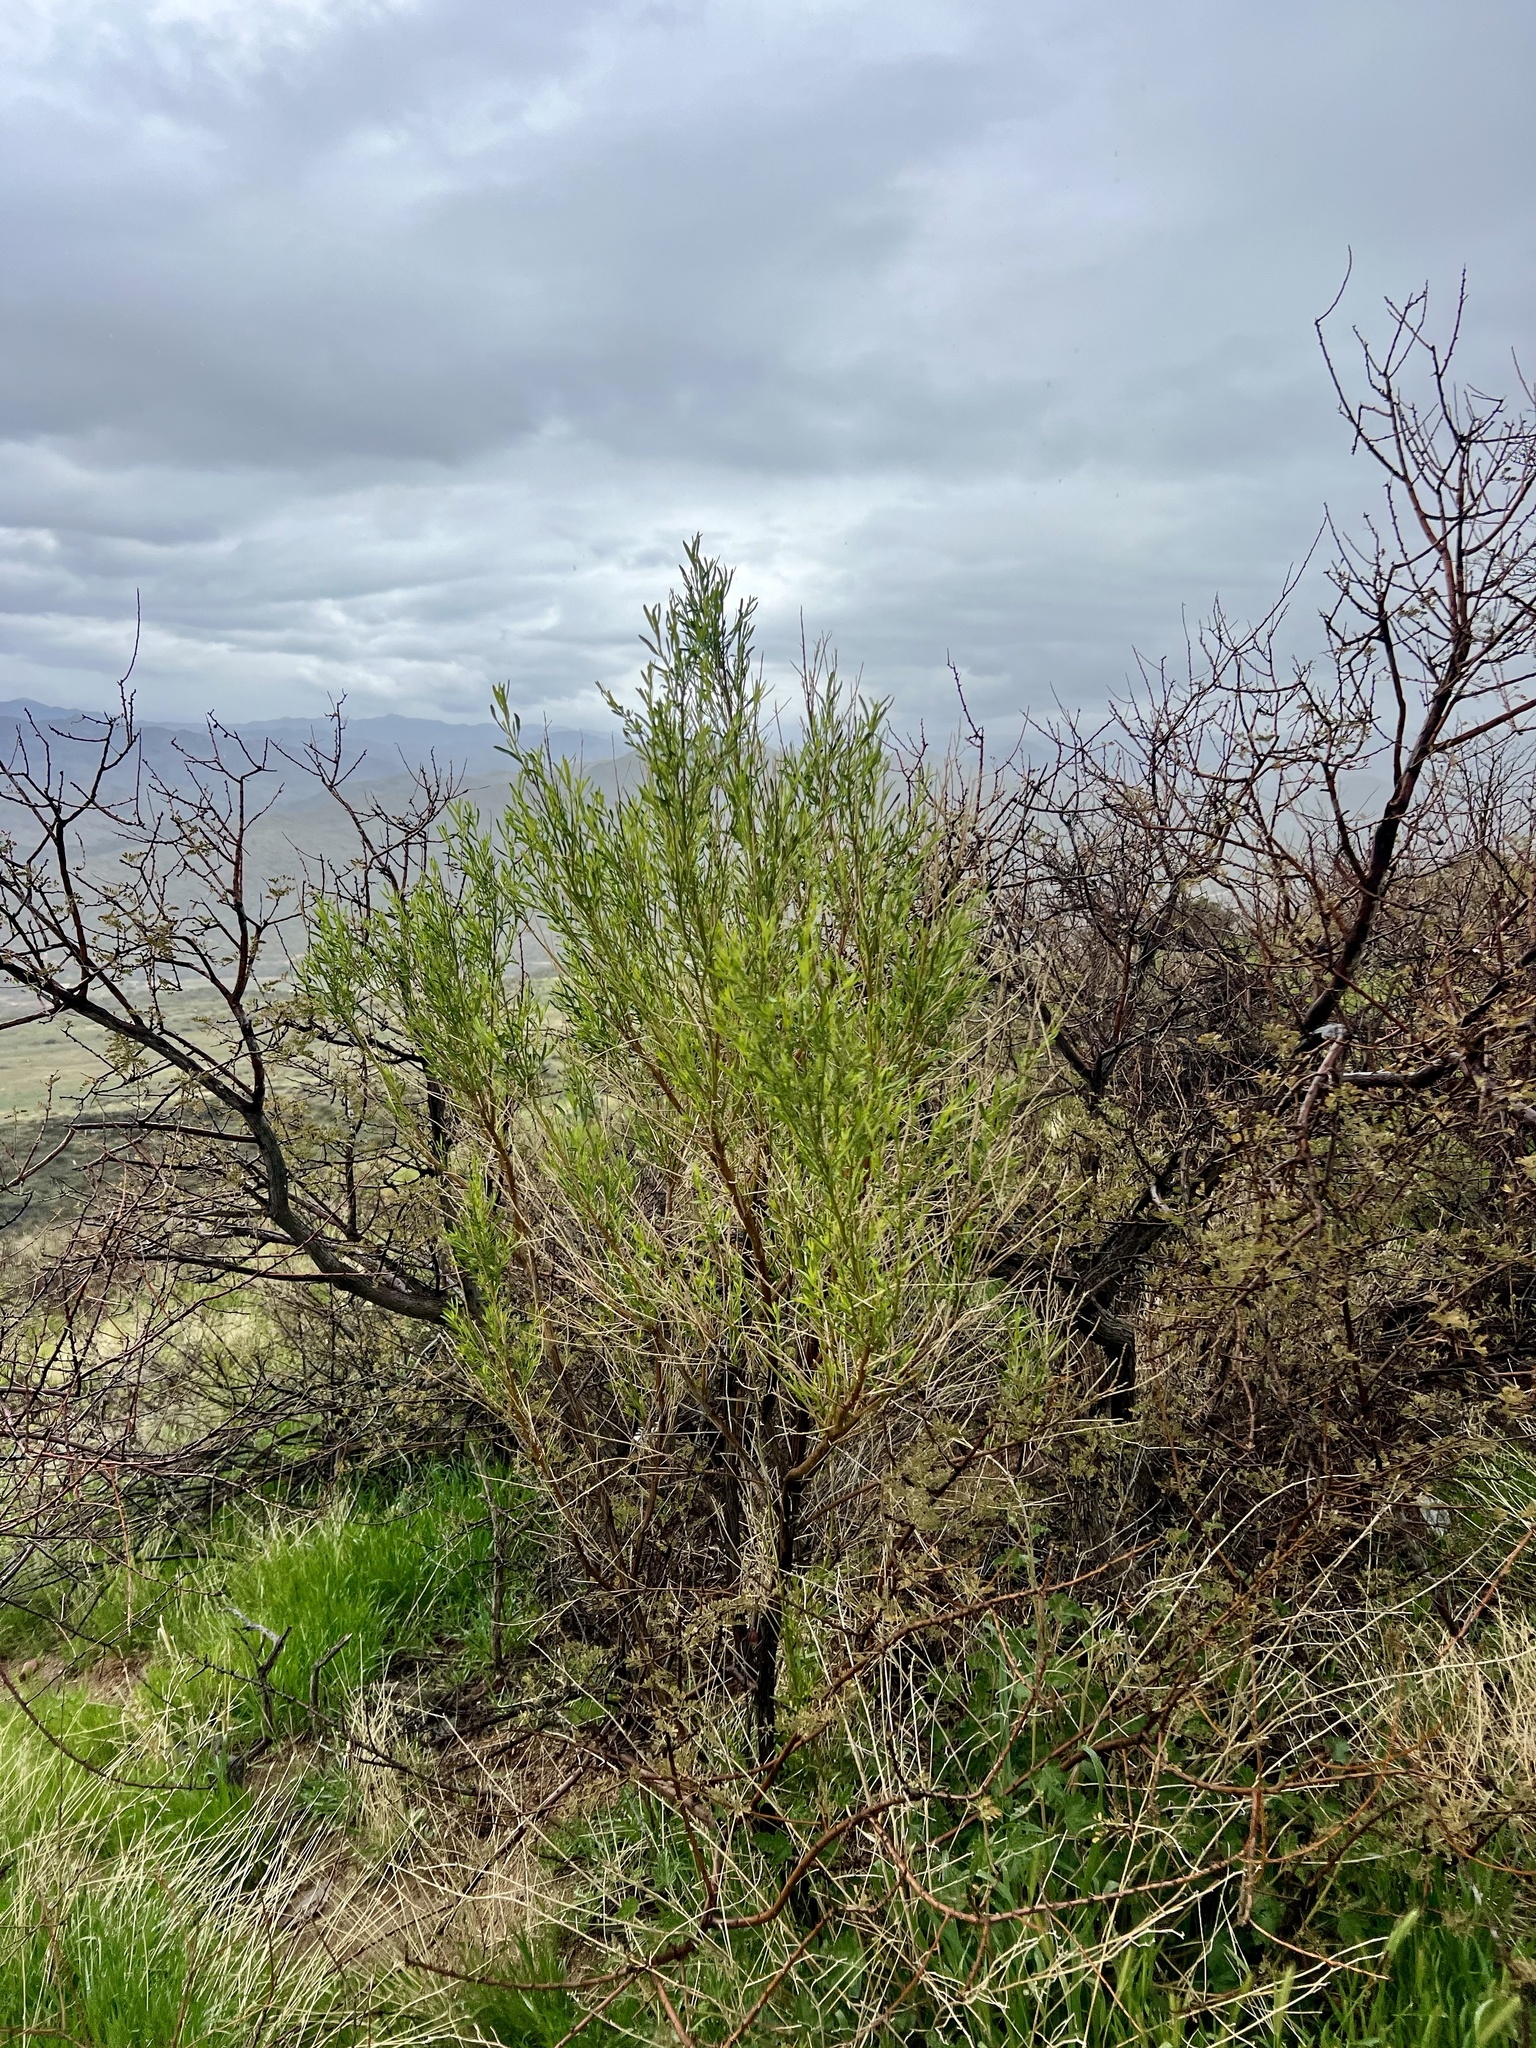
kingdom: Plantae
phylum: Tracheophyta
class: Magnoliopsida
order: Asterales
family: Asteraceae
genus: Baccharis
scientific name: Baccharis sarothroides
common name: Desert-broom
